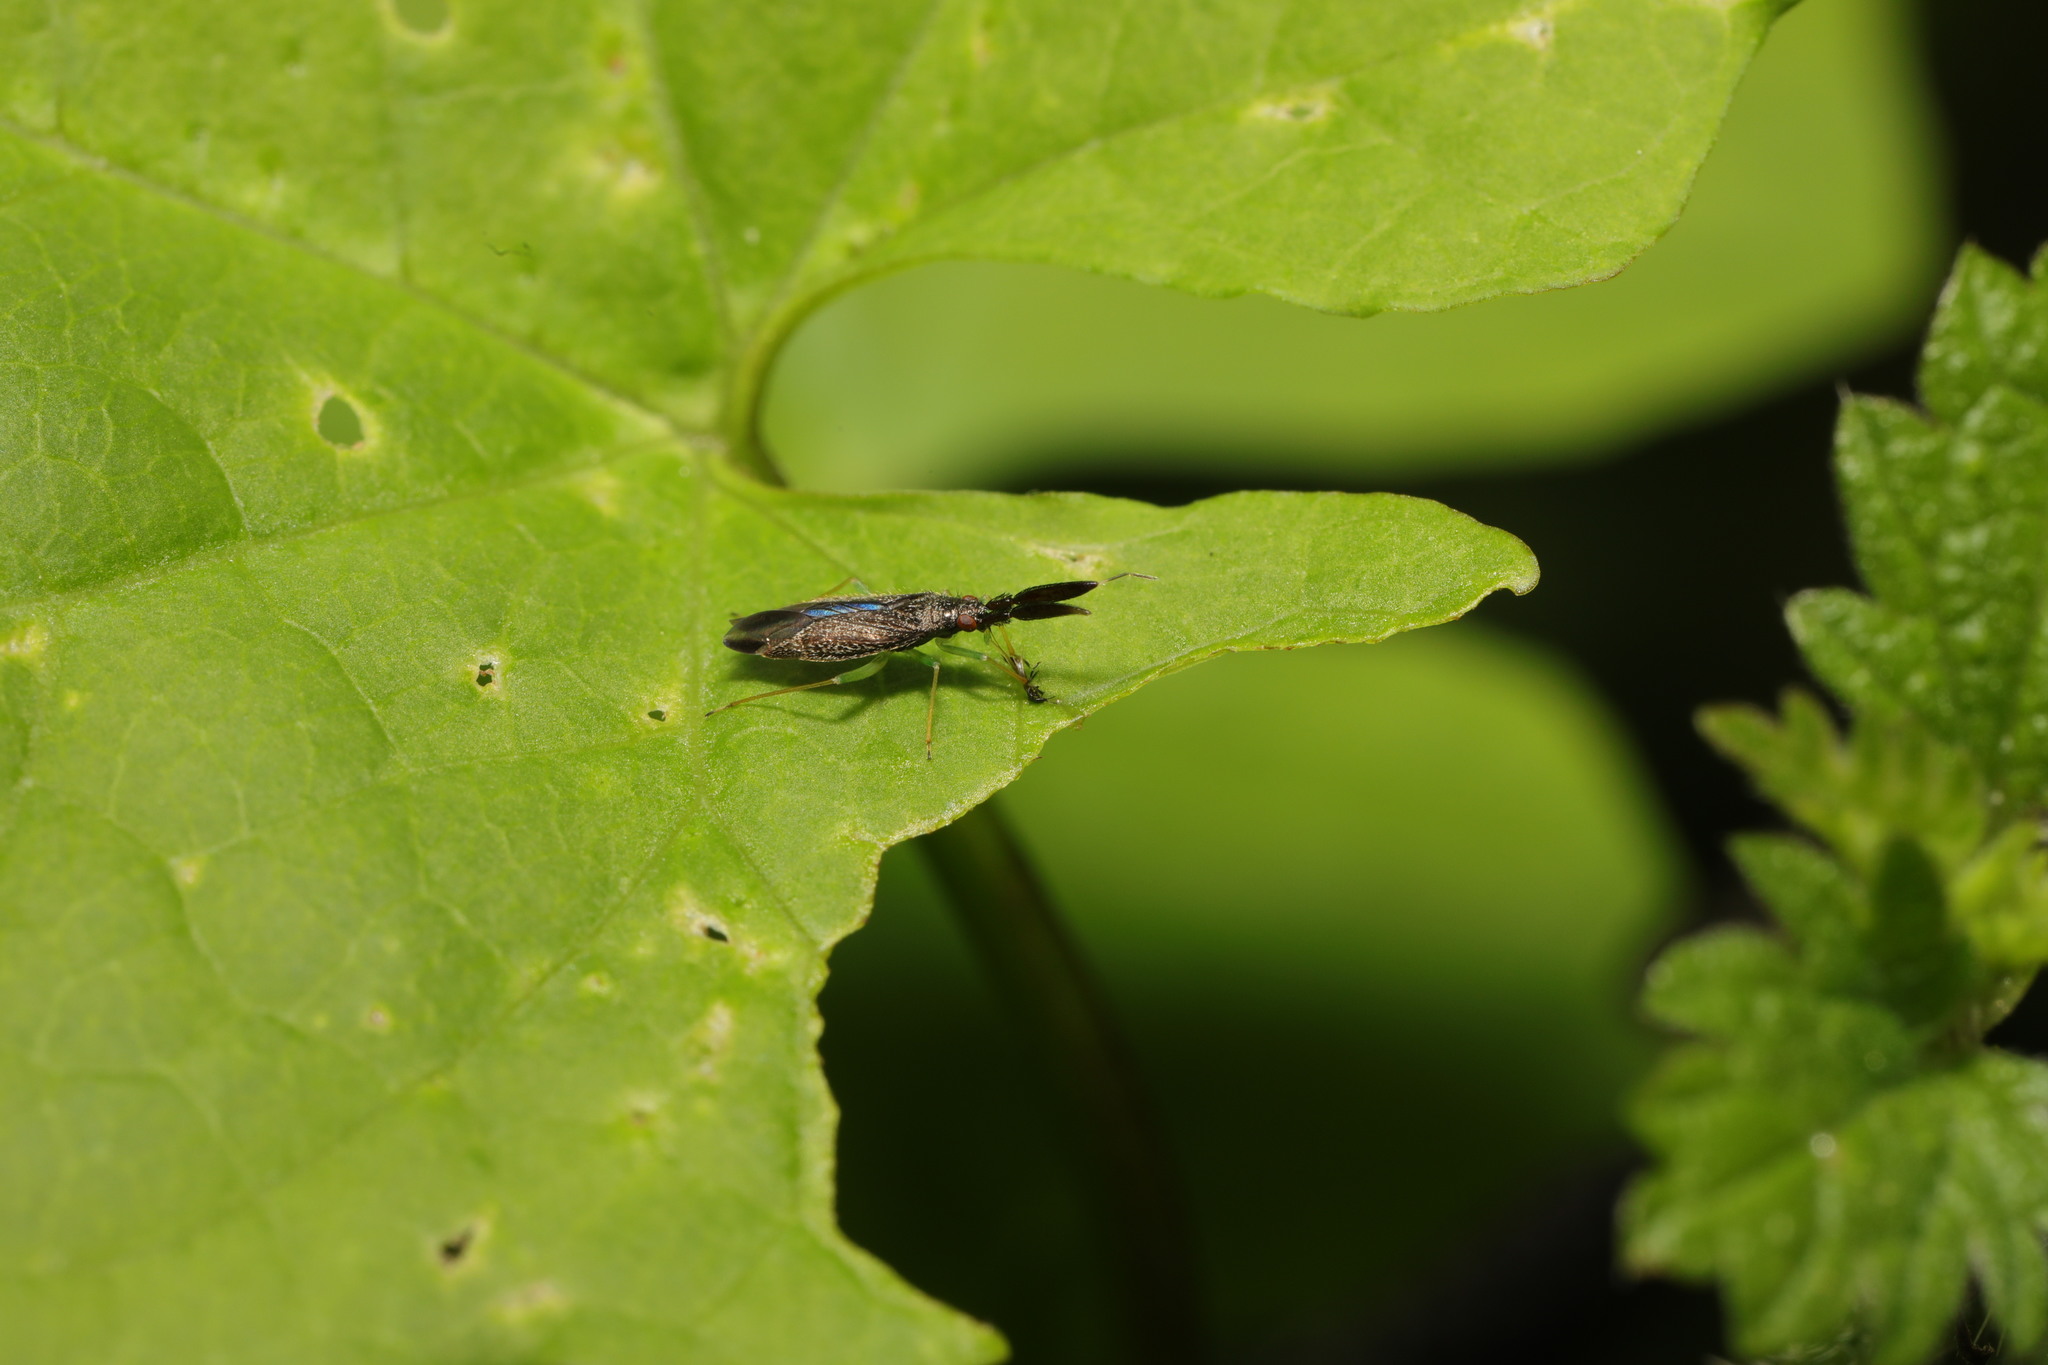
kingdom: Animalia
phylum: Arthropoda
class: Insecta
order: Hemiptera
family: Miridae
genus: Heterotoma
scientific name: Heterotoma planicornis
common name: Plant bug
